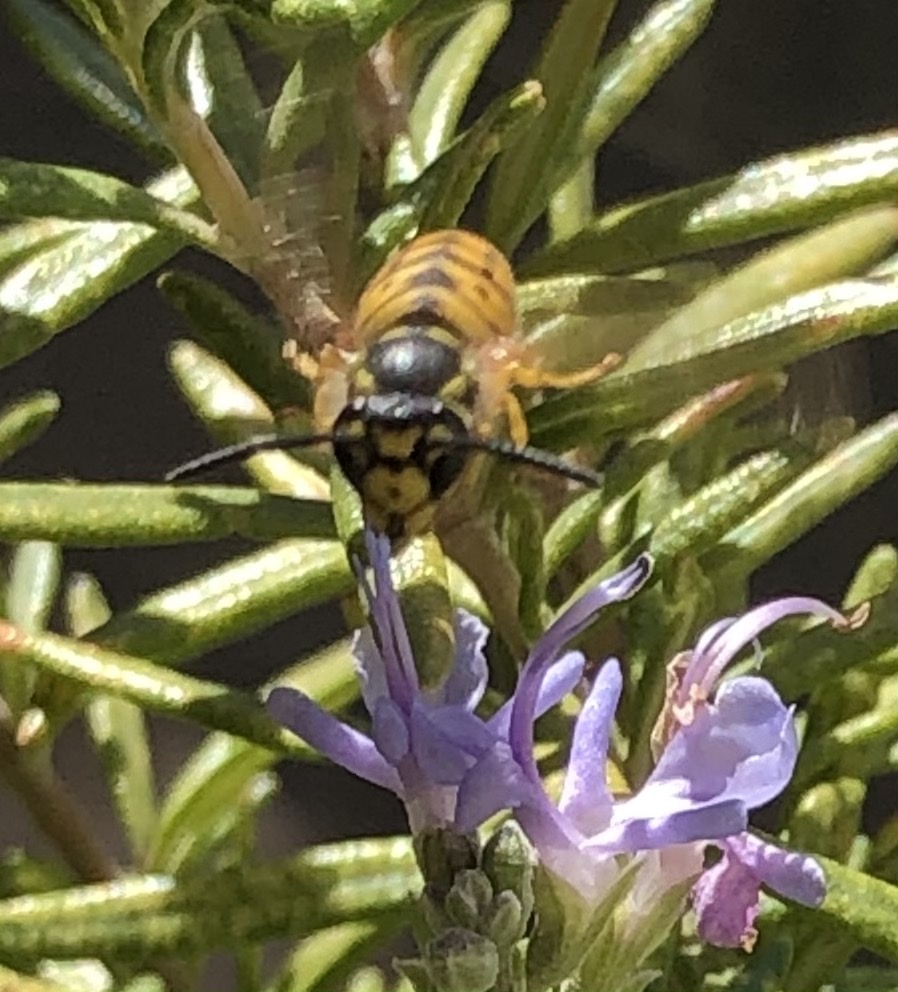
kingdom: Animalia
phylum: Arthropoda
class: Insecta
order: Hymenoptera
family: Vespidae
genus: Vespula
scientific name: Vespula germanica
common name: German wasp
